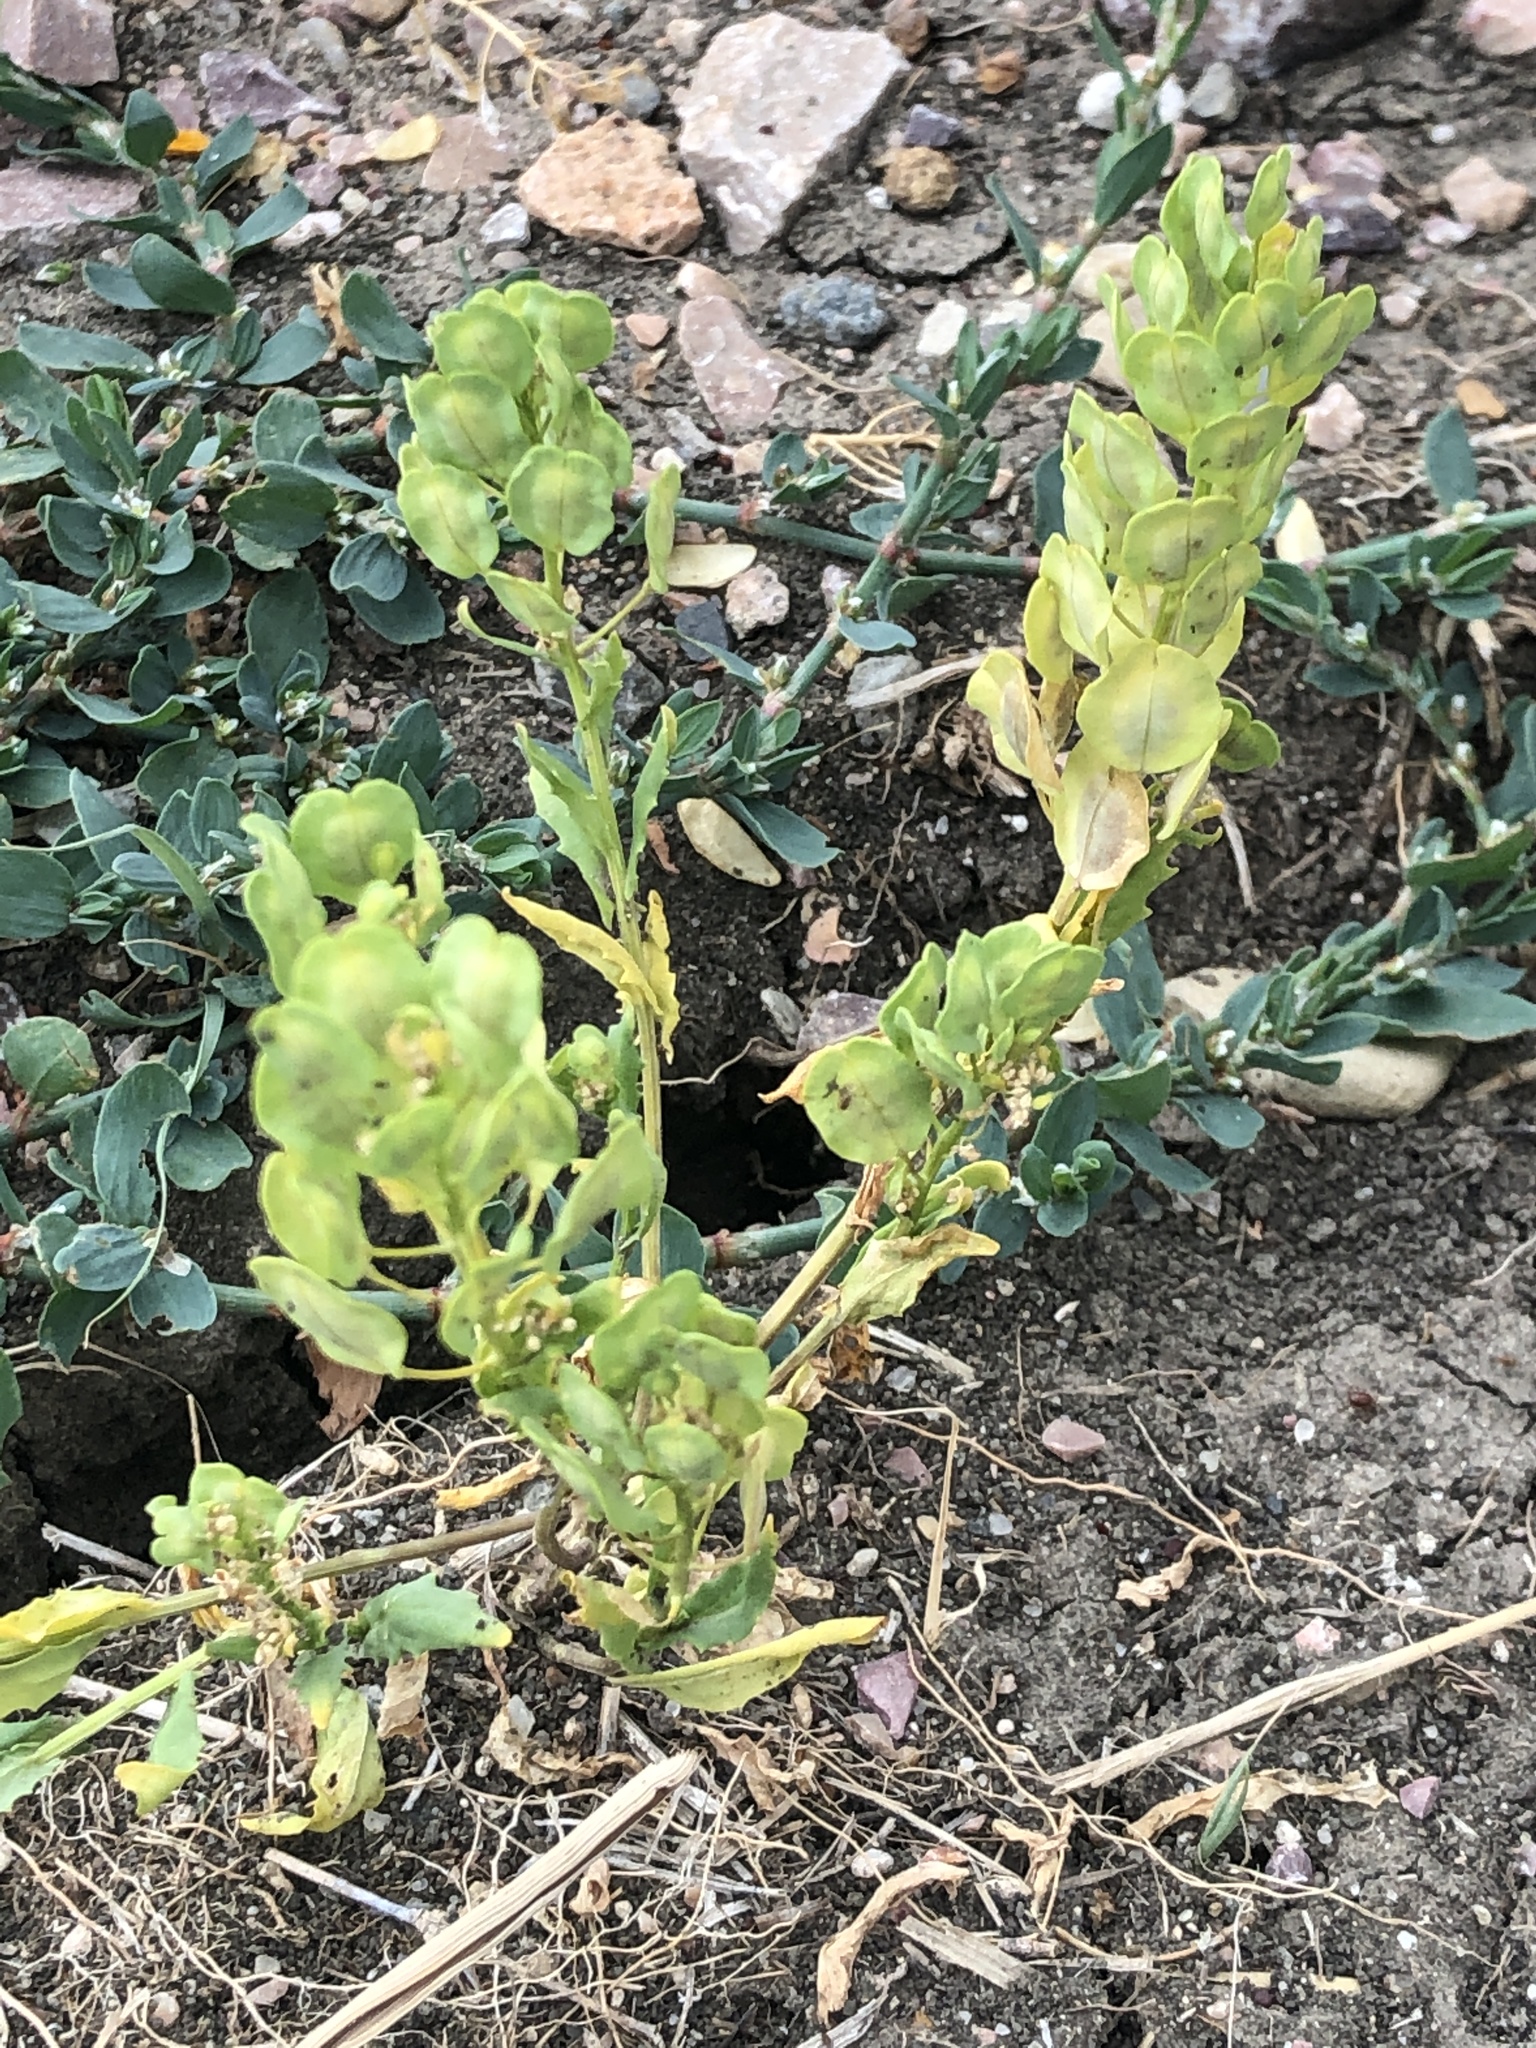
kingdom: Plantae
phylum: Tracheophyta
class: Magnoliopsida
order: Brassicales
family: Brassicaceae
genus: Thlaspi
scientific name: Thlaspi arvense
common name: Field pennycress
